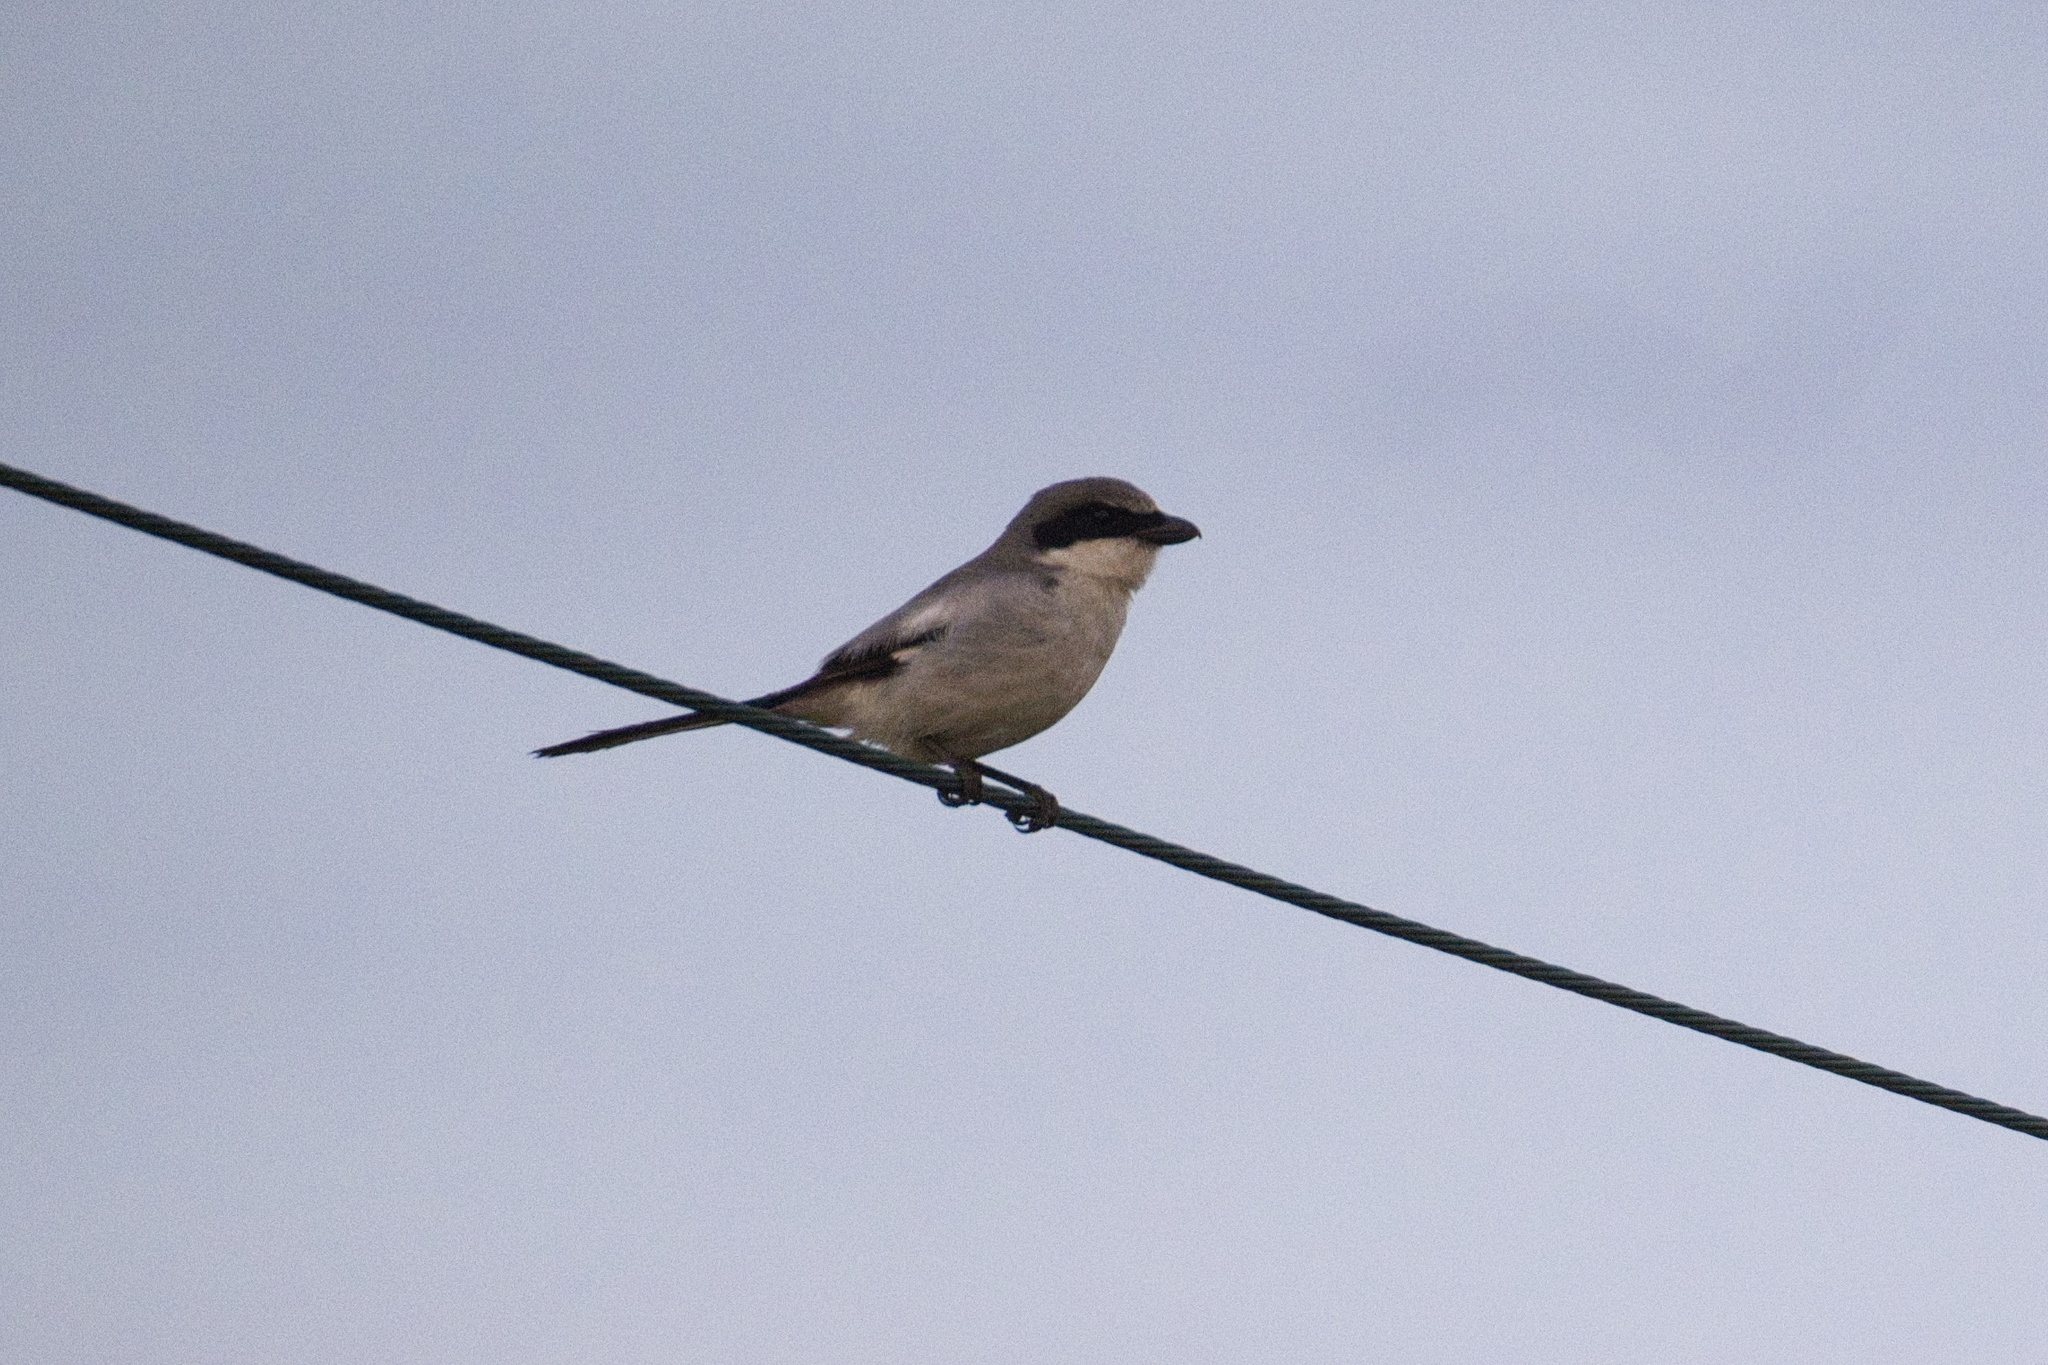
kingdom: Animalia
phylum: Chordata
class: Aves
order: Passeriformes
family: Laniidae
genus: Lanius
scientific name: Lanius ludovicianus
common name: Loggerhead shrike
